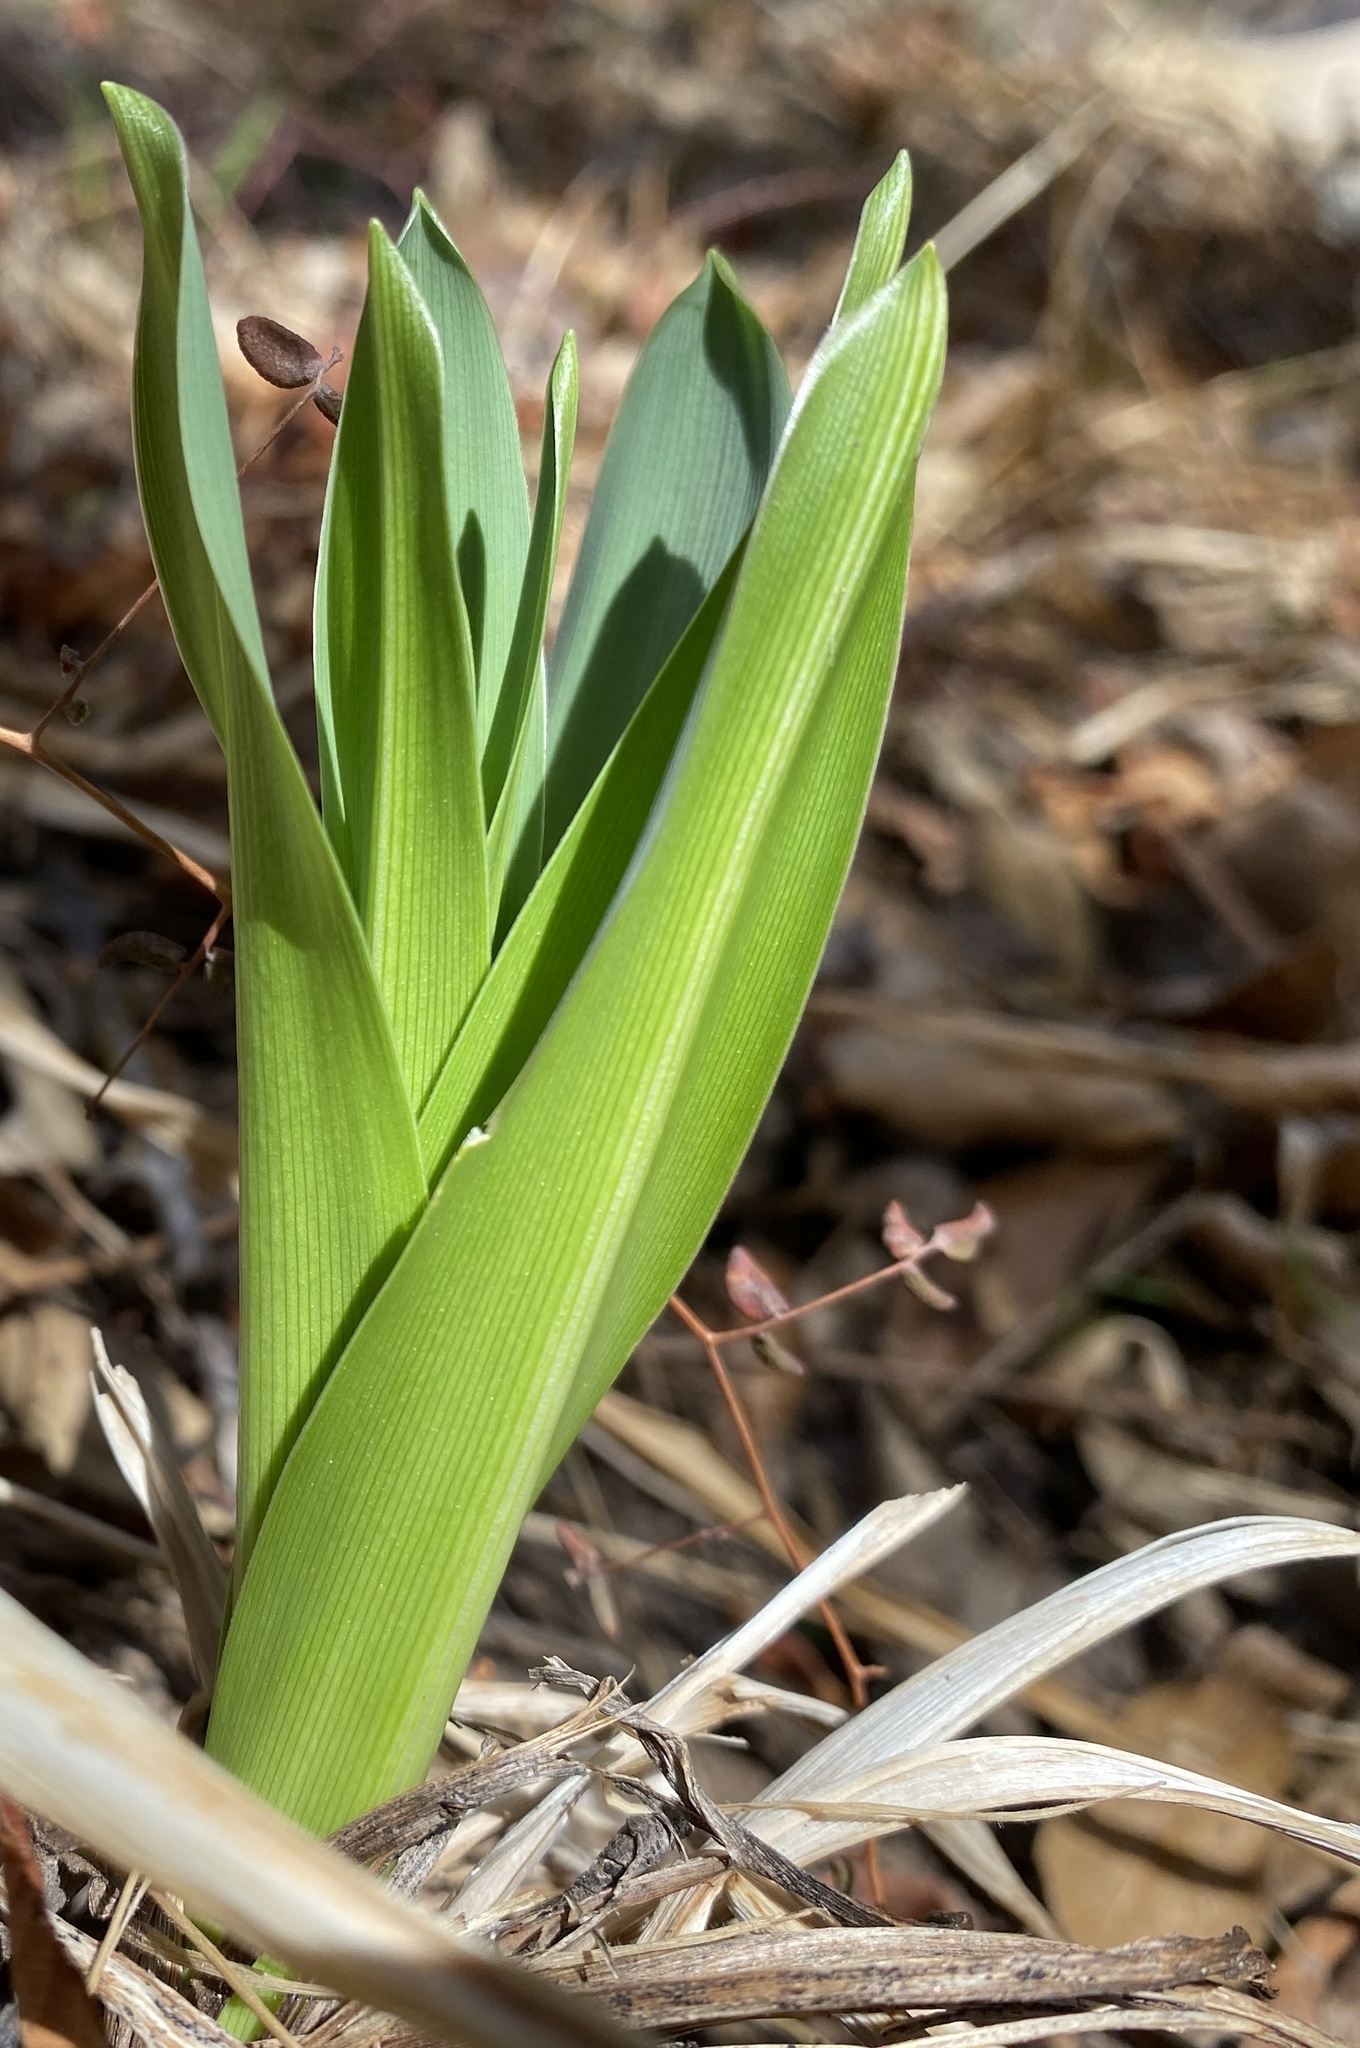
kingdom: Plantae
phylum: Tracheophyta
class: Liliopsida
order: Asparagales
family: Asparagaceae
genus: Chlorogalum
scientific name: Chlorogalum pomeridianum
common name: Amole
